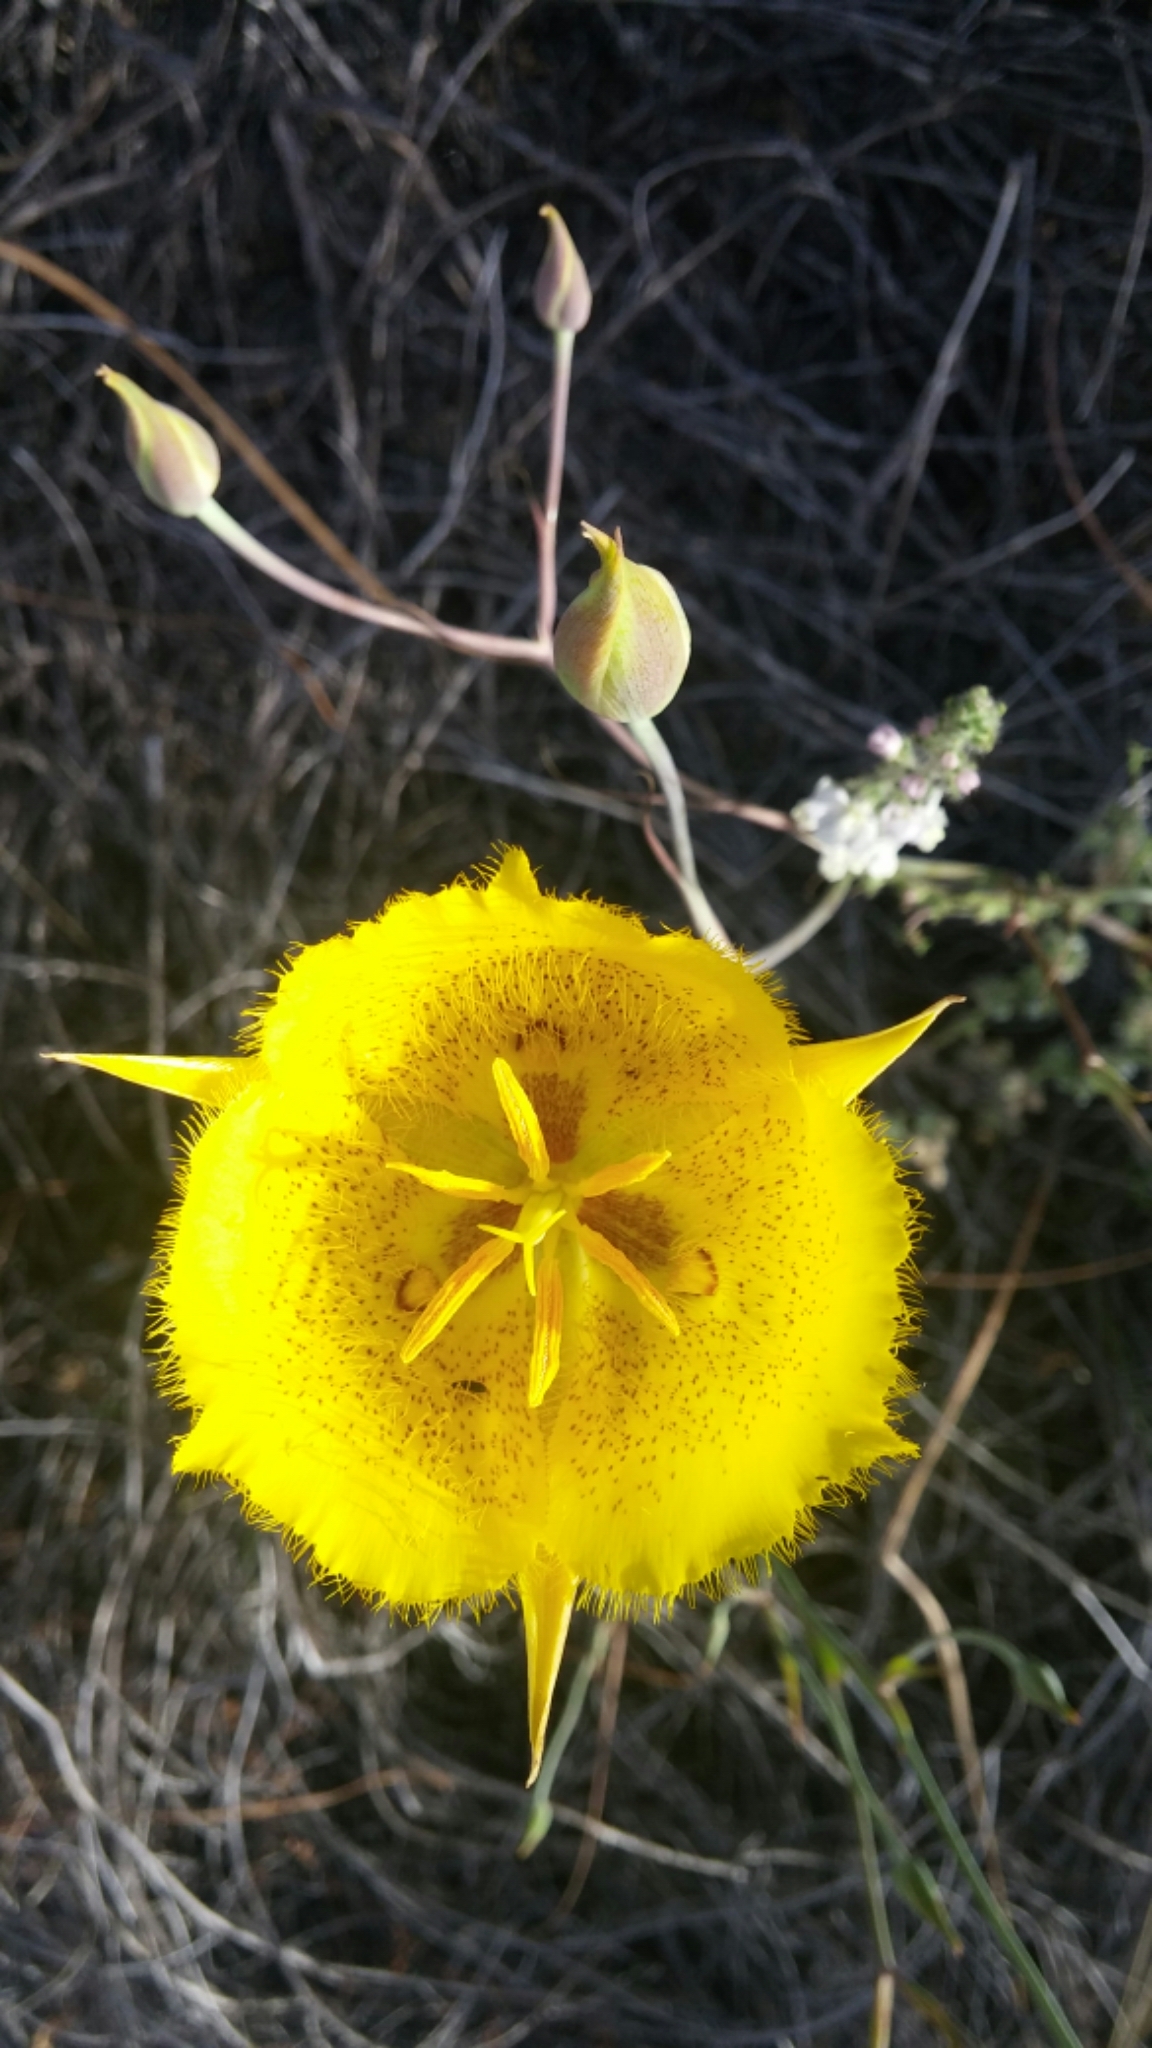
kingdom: Plantae
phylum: Tracheophyta
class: Liliopsida
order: Liliales
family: Liliaceae
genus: Calochortus
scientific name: Calochortus weedii
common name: Weed's mariposa-lily
